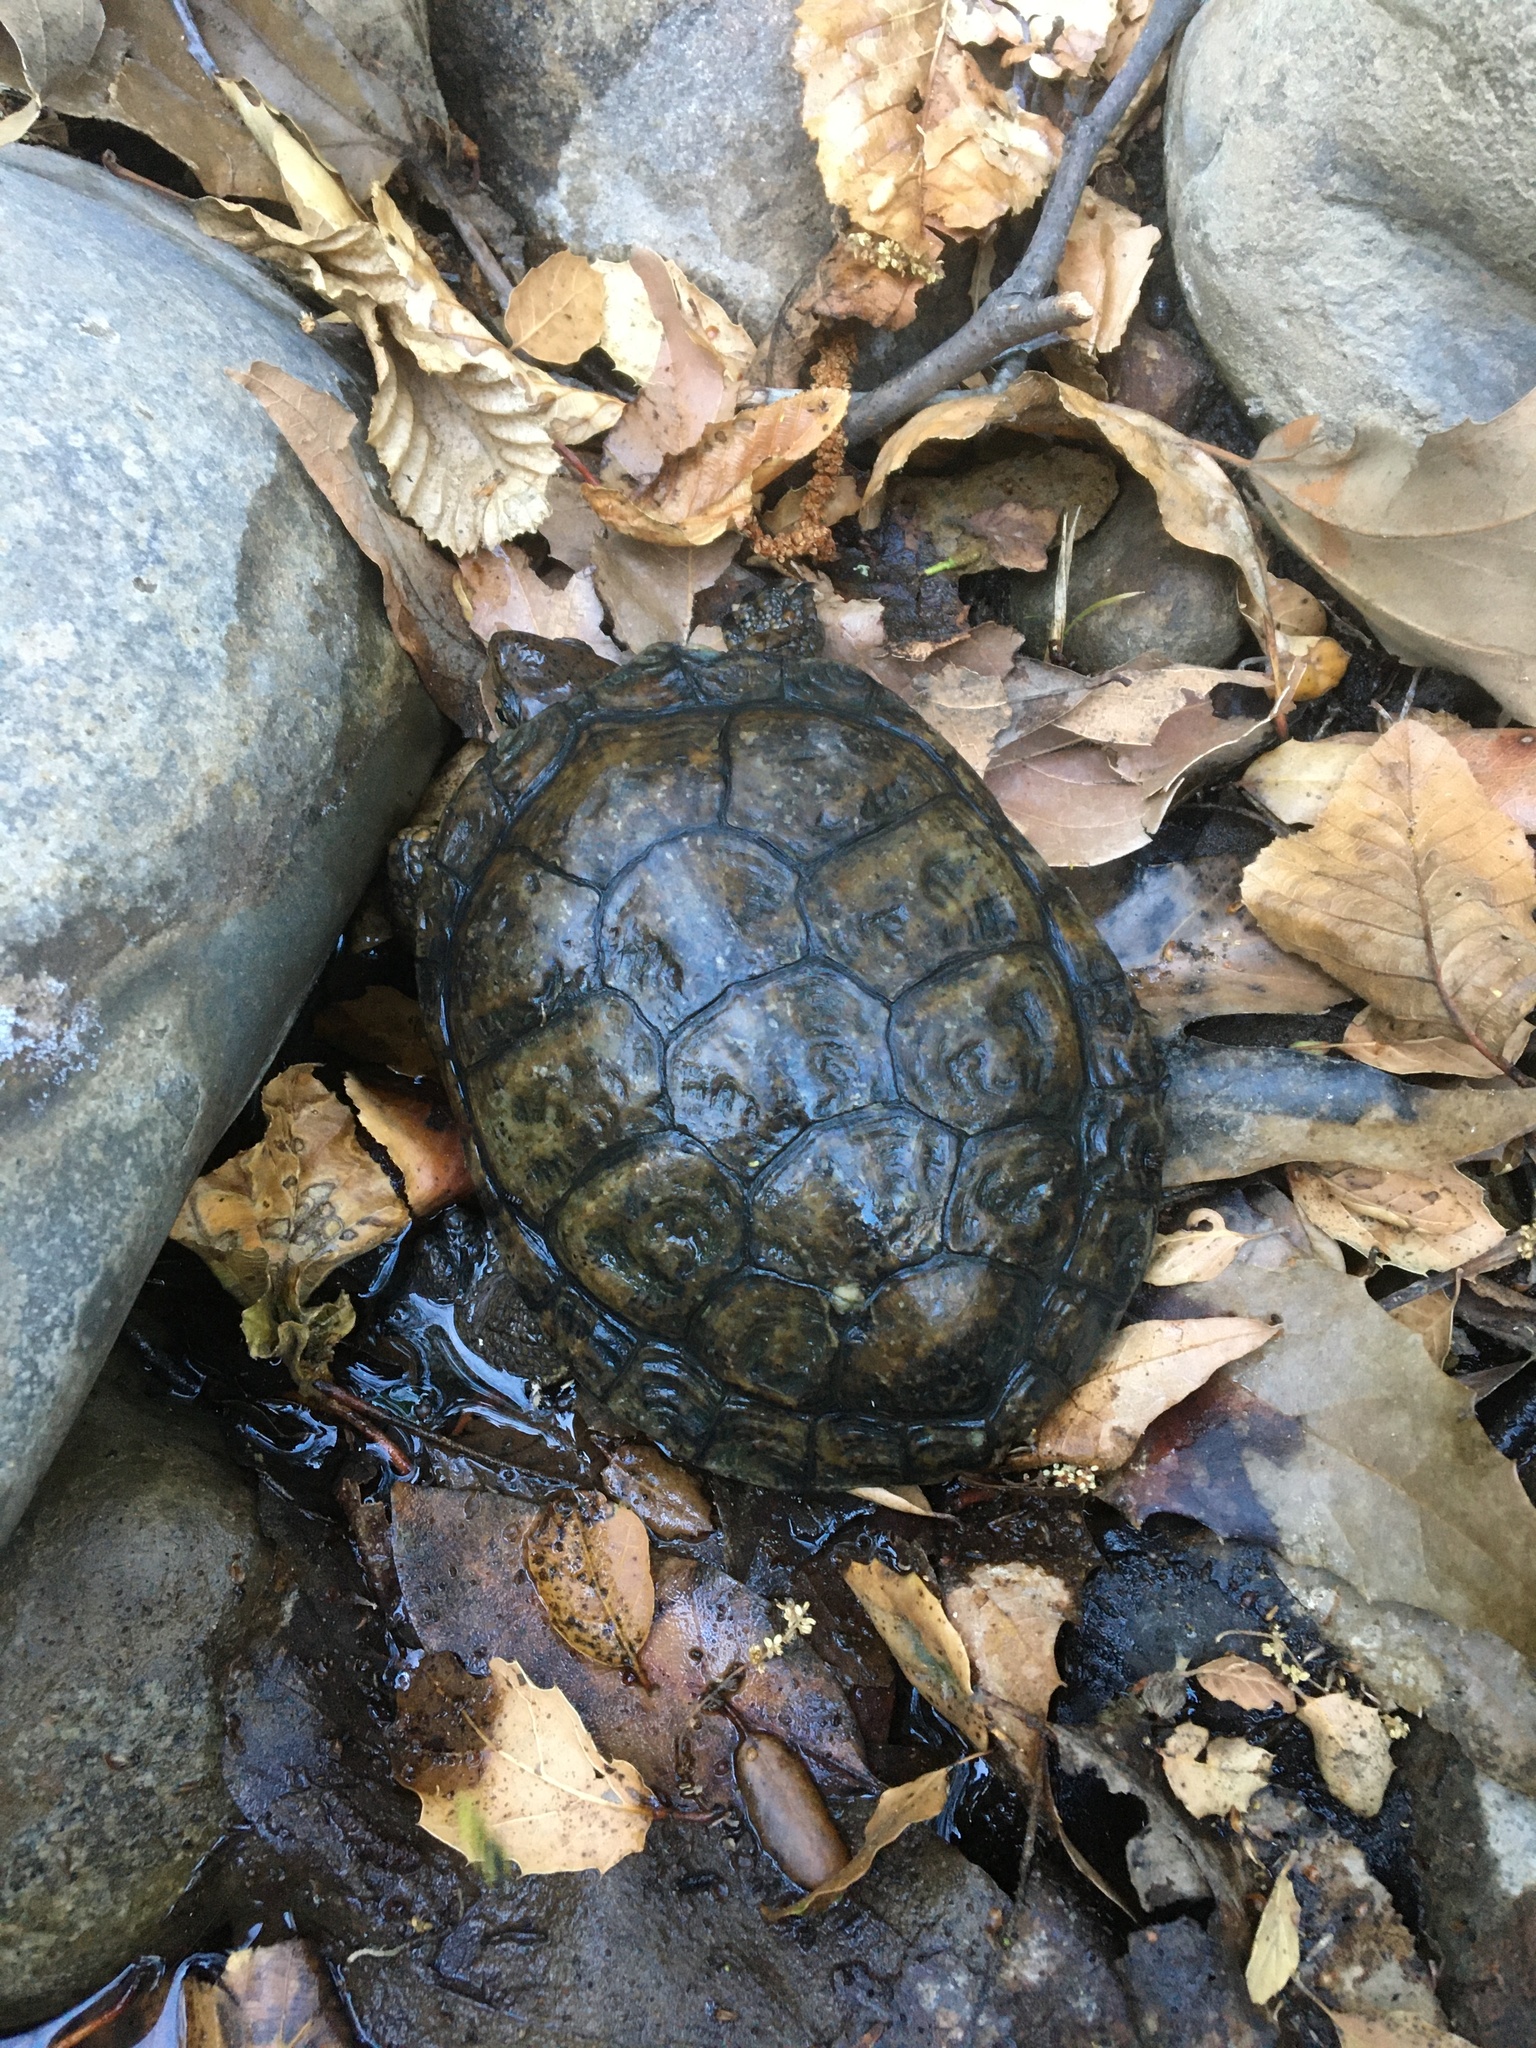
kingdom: Animalia
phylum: Chordata
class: Testudines
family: Emydidae
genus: Actinemys
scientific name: Actinemys marmorata
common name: Western pond turtle
